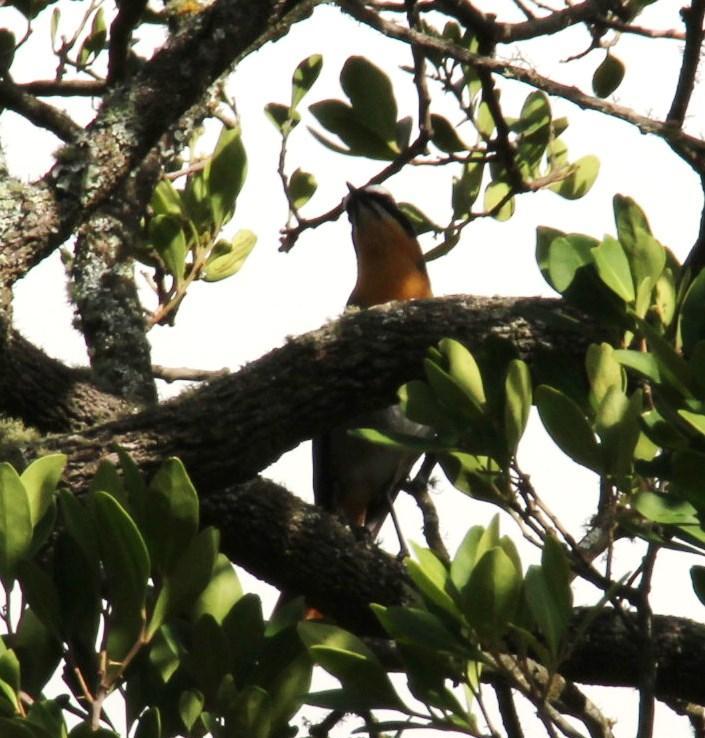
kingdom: Plantae
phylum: Tracheophyta
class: Magnoliopsida
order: Ericales
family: Primulaceae
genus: Myrsine
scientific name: Myrsine melanophloeos
